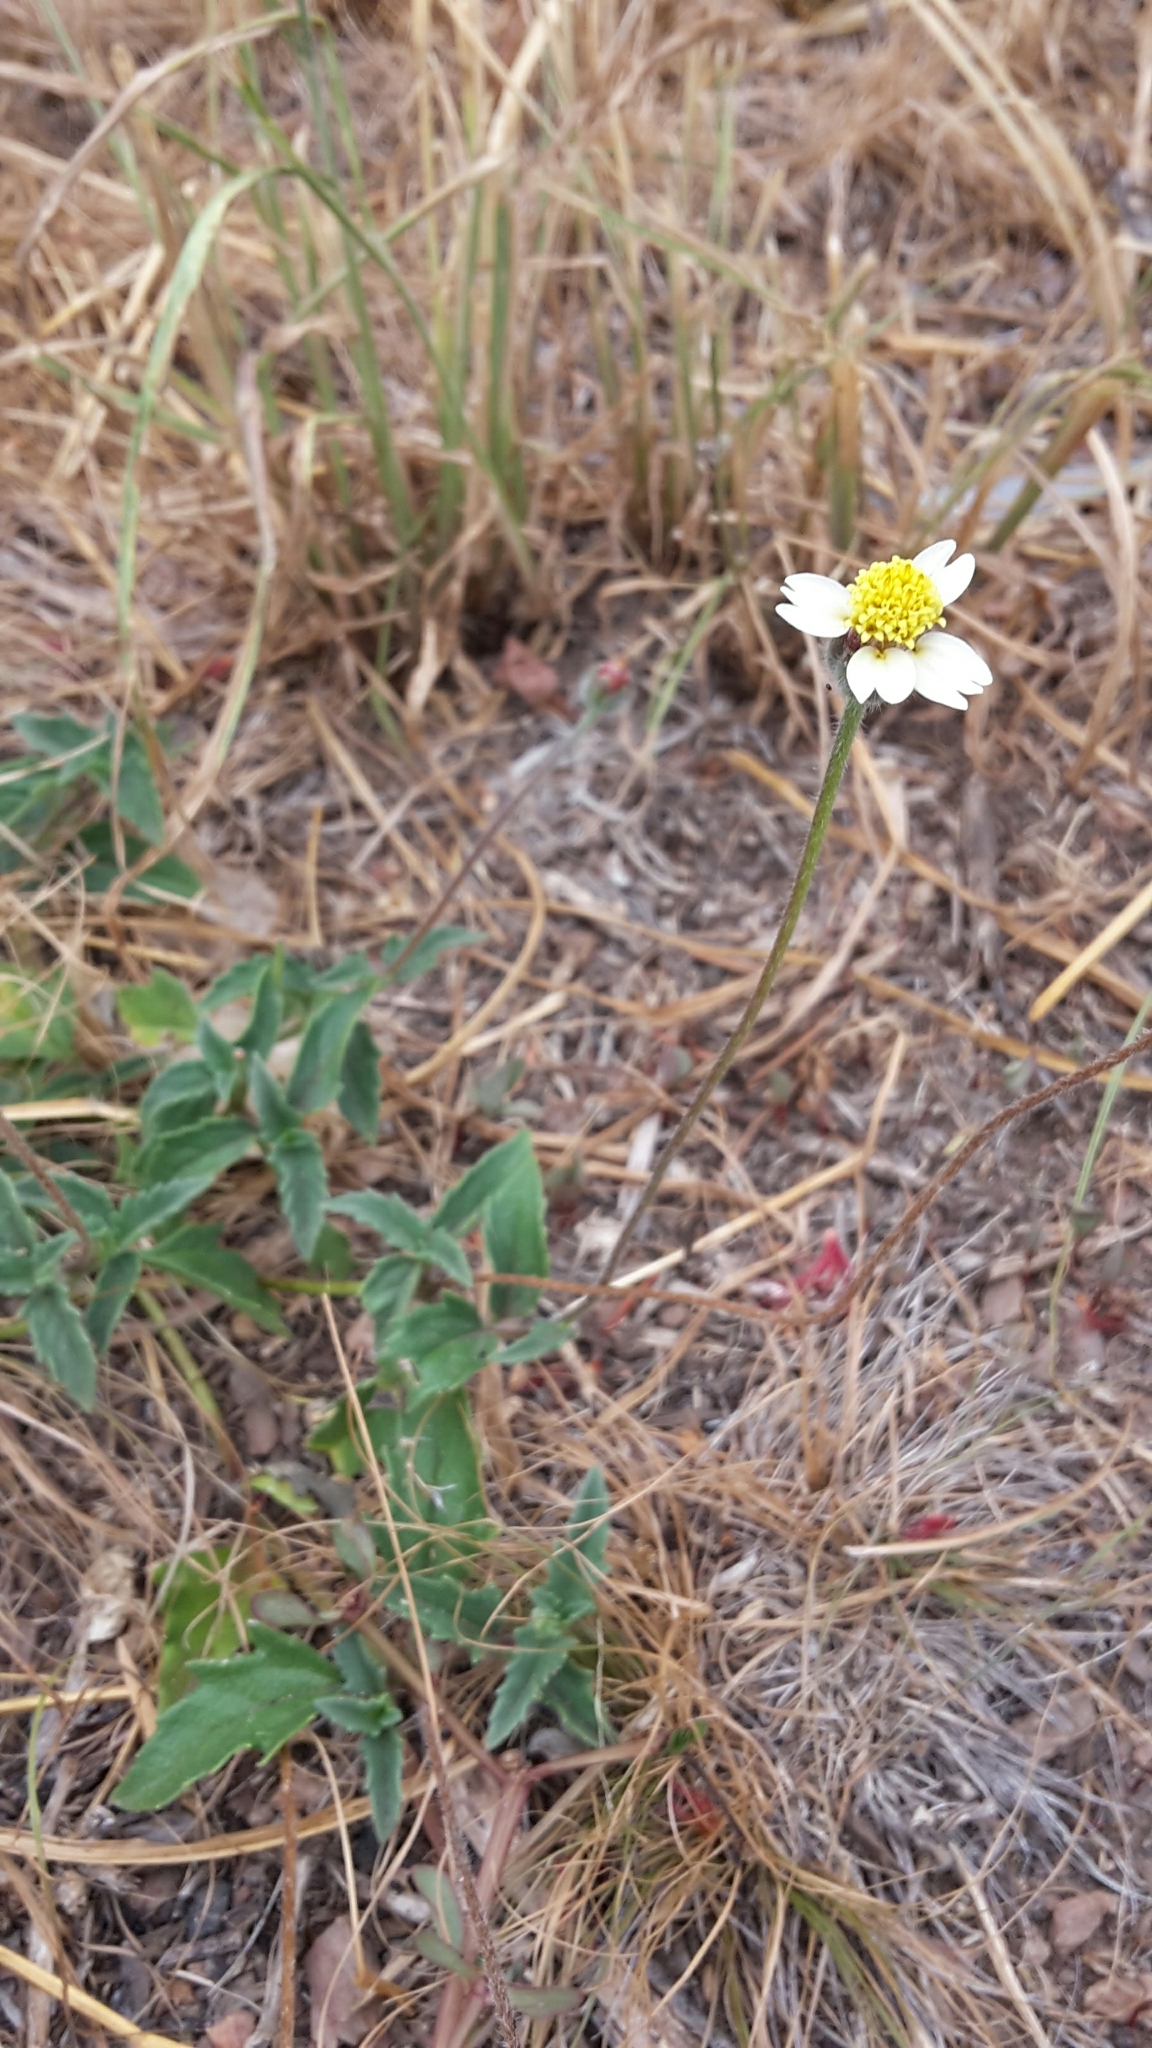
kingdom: Plantae
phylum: Tracheophyta
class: Magnoliopsida
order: Asterales
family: Asteraceae
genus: Tridax
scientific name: Tridax procumbens
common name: Coatbuttons
